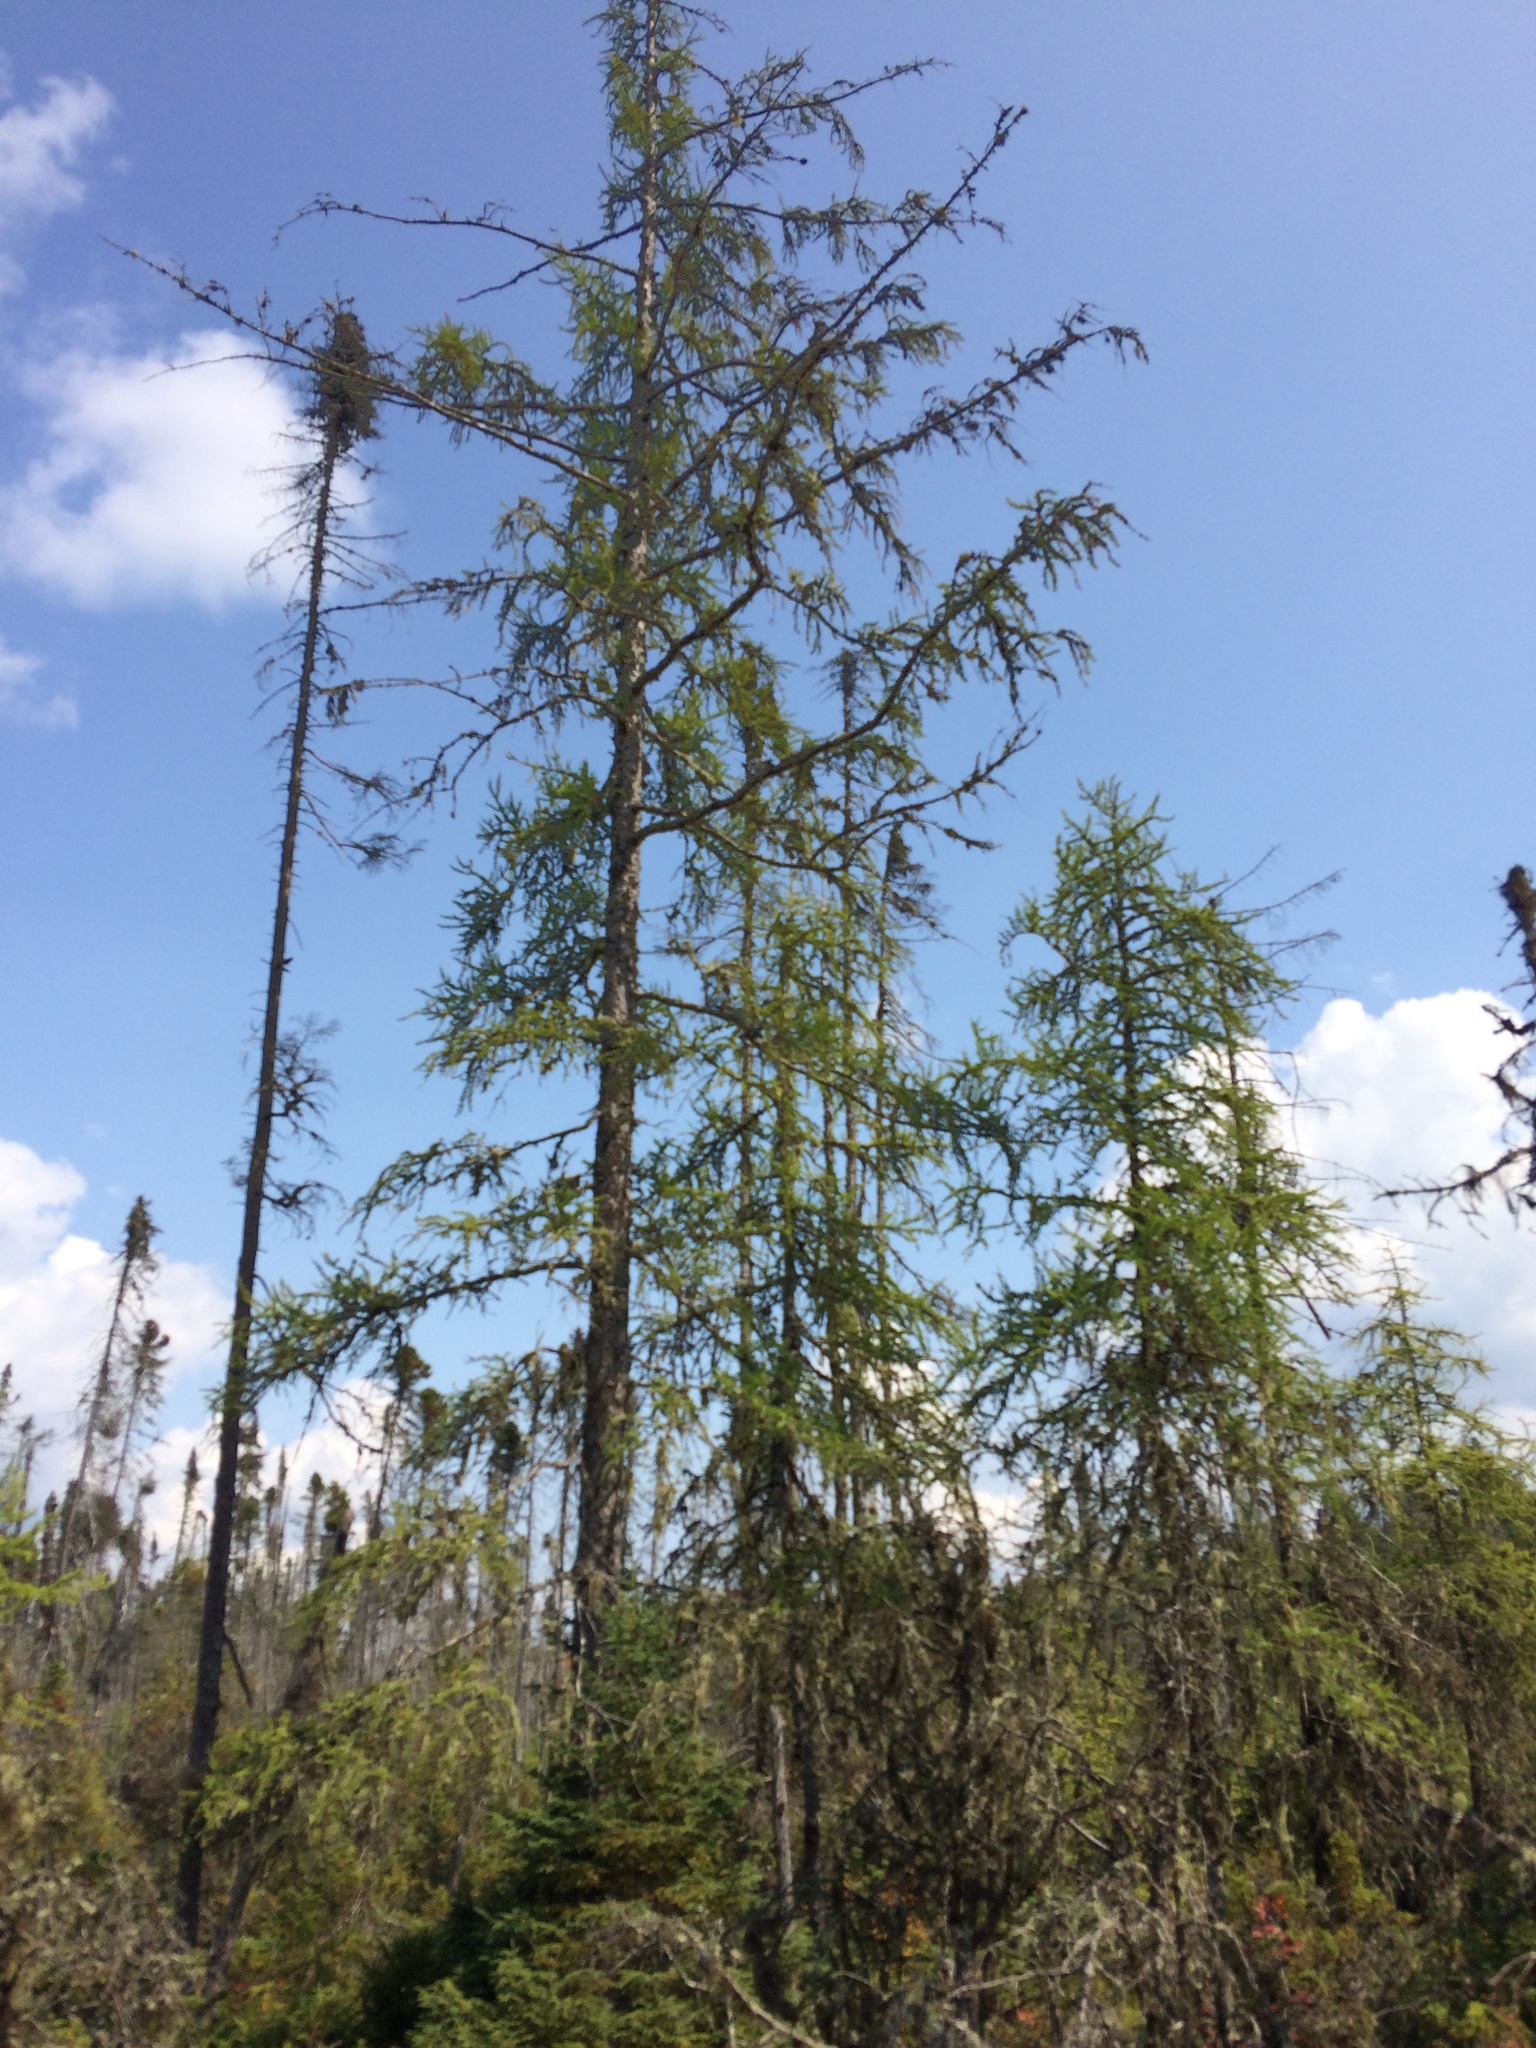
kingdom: Plantae
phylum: Tracheophyta
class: Pinopsida
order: Pinales
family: Pinaceae
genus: Larix
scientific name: Larix laricina
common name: American larch
